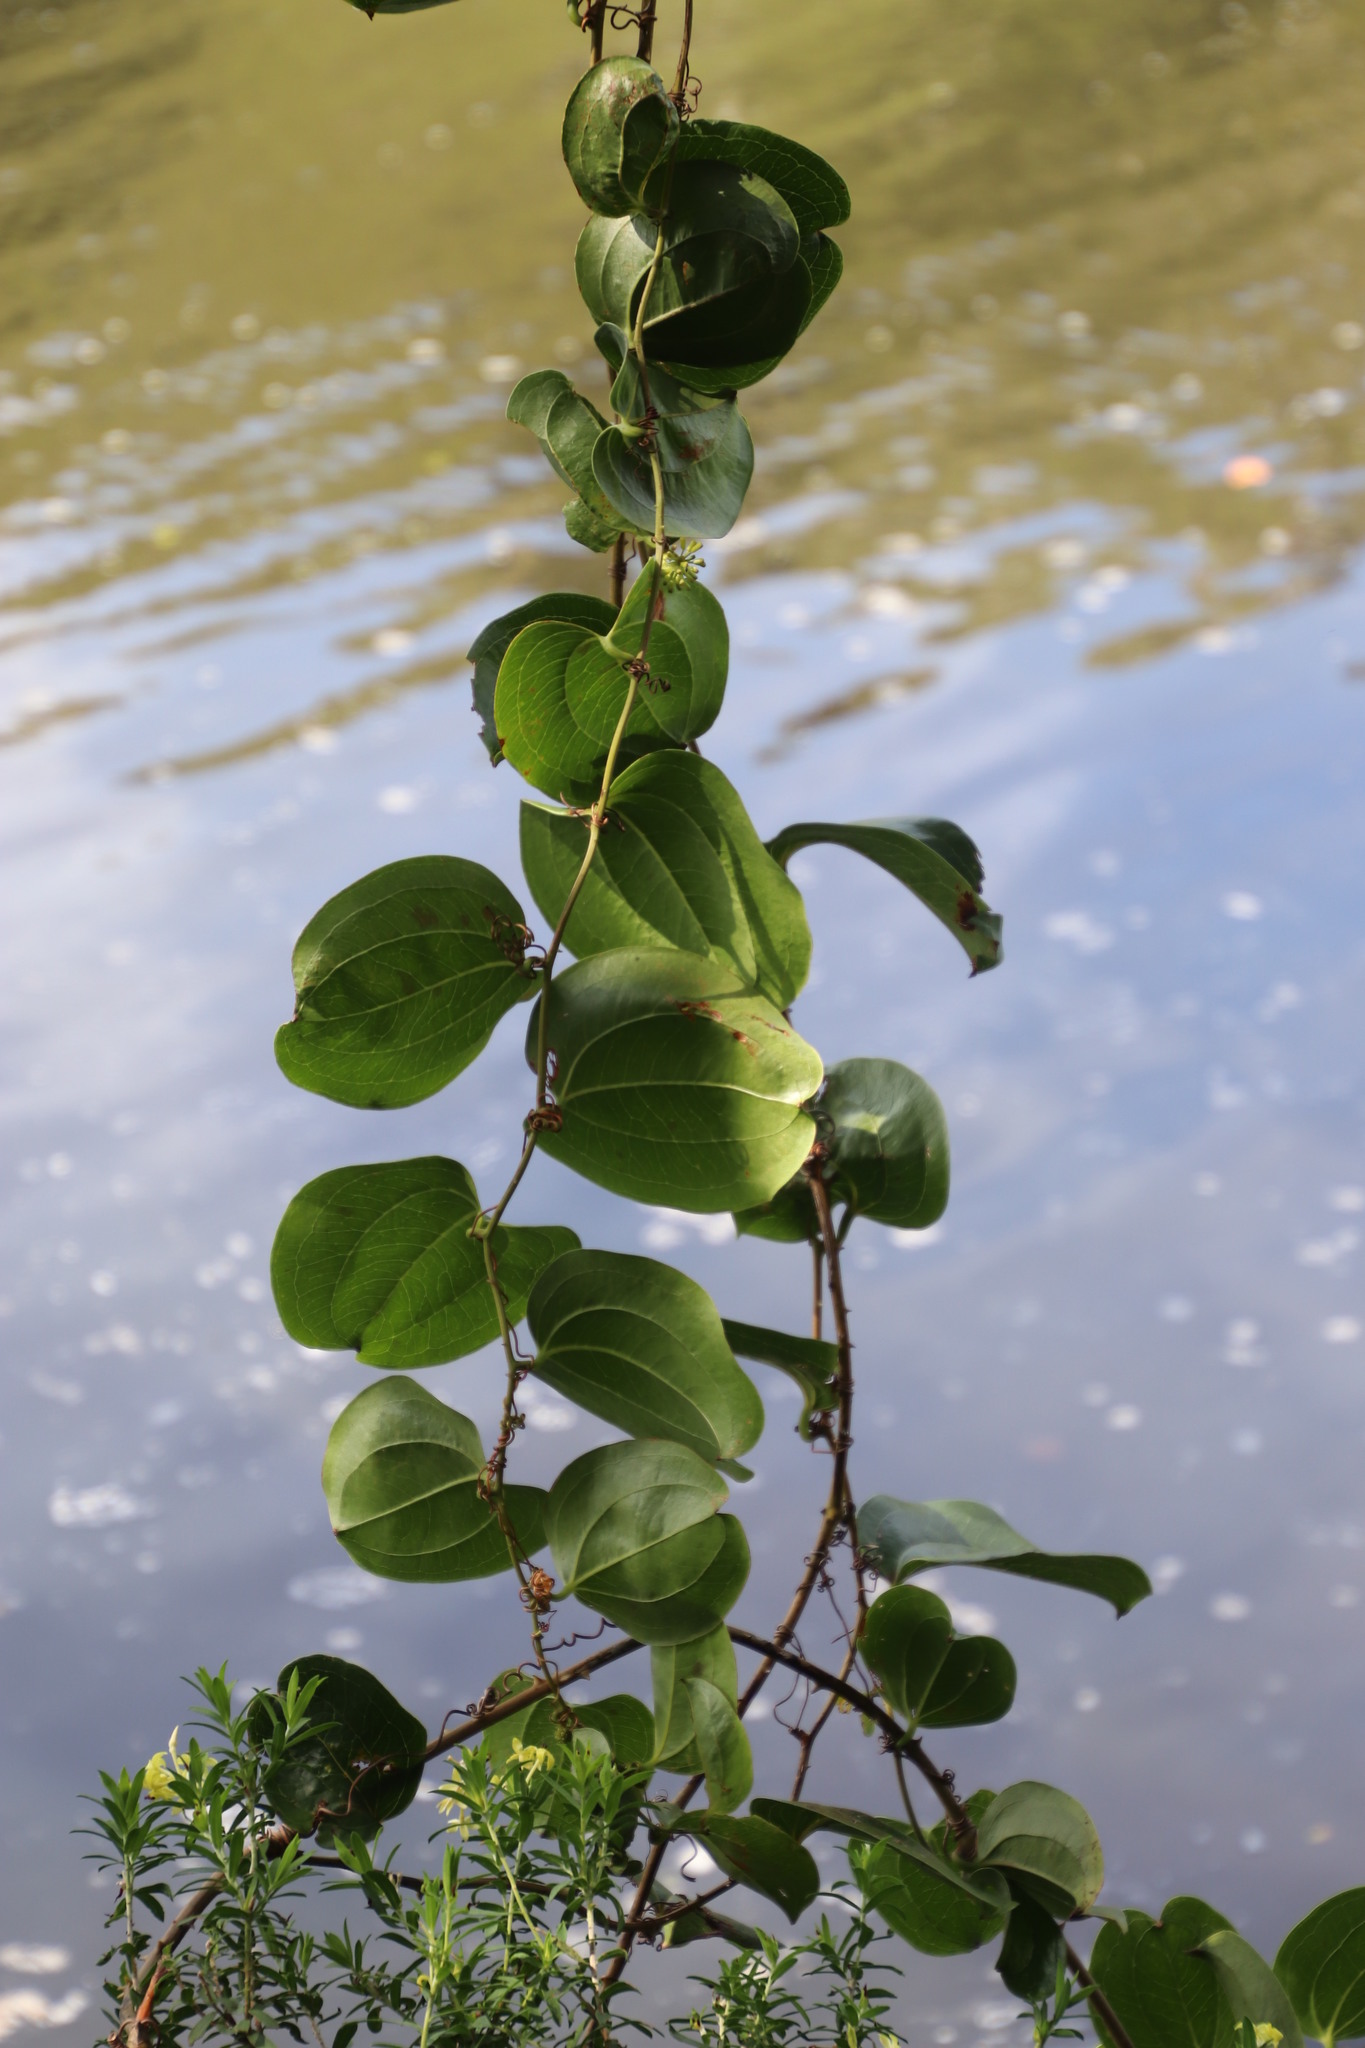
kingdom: Plantae
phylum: Tracheophyta
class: Liliopsida
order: Liliales
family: Smilacaceae
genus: Smilax
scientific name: Smilax anceps
